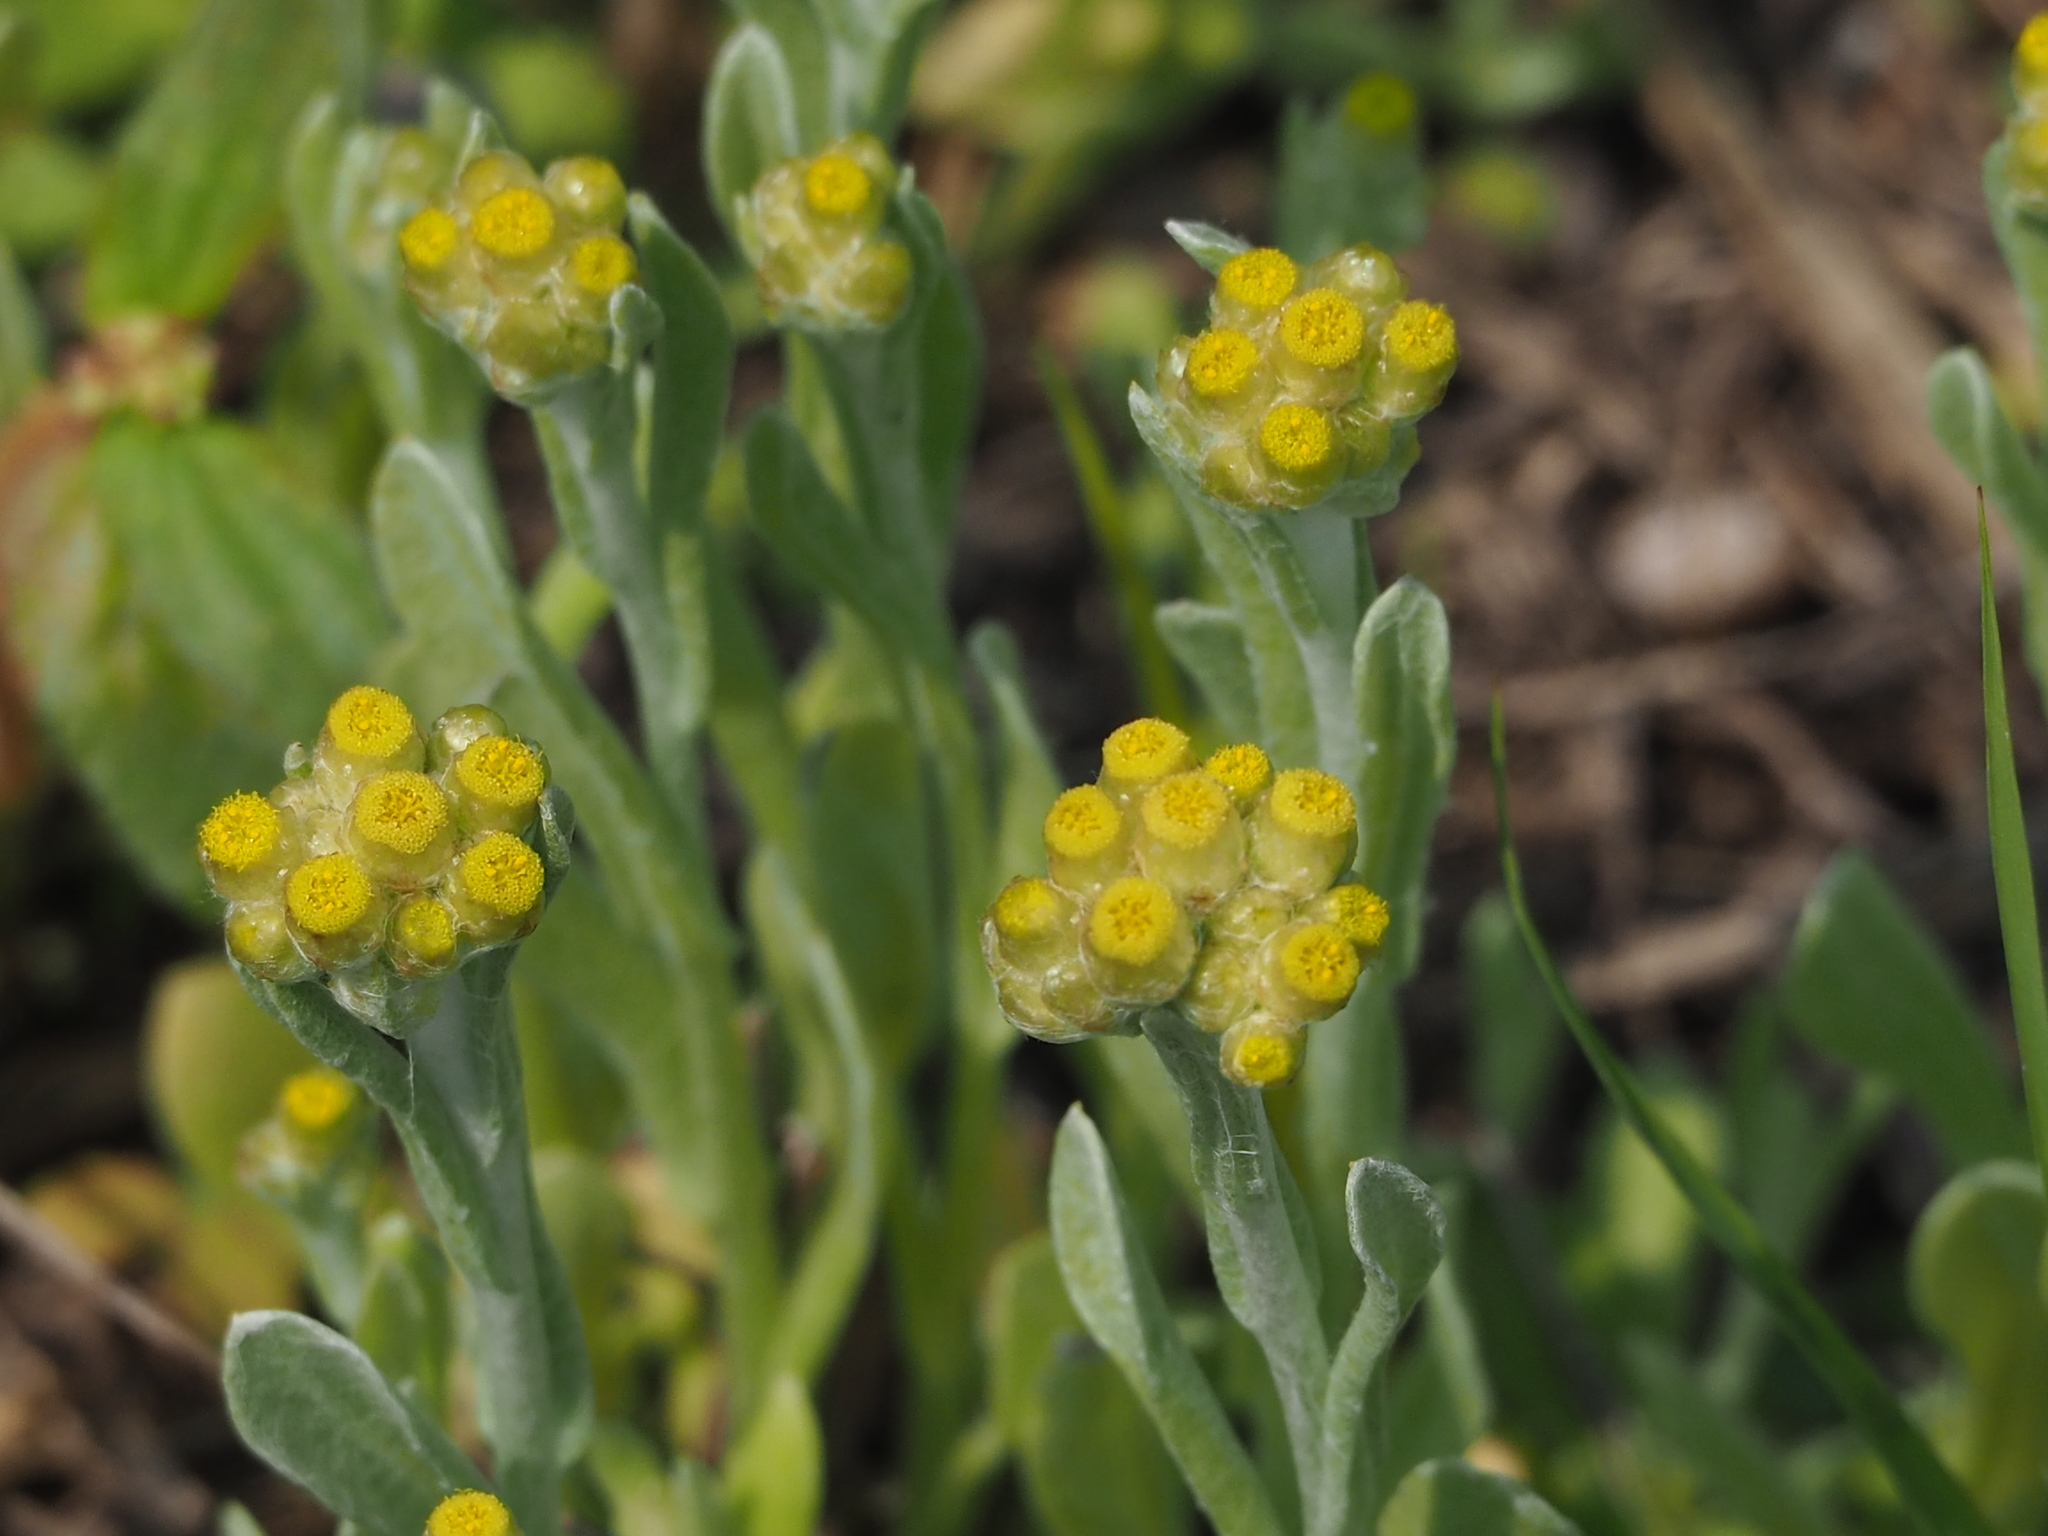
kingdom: Plantae
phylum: Tracheophyta
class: Magnoliopsida
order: Asterales
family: Asteraceae
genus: Pseudognaphalium
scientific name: Pseudognaphalium affine
